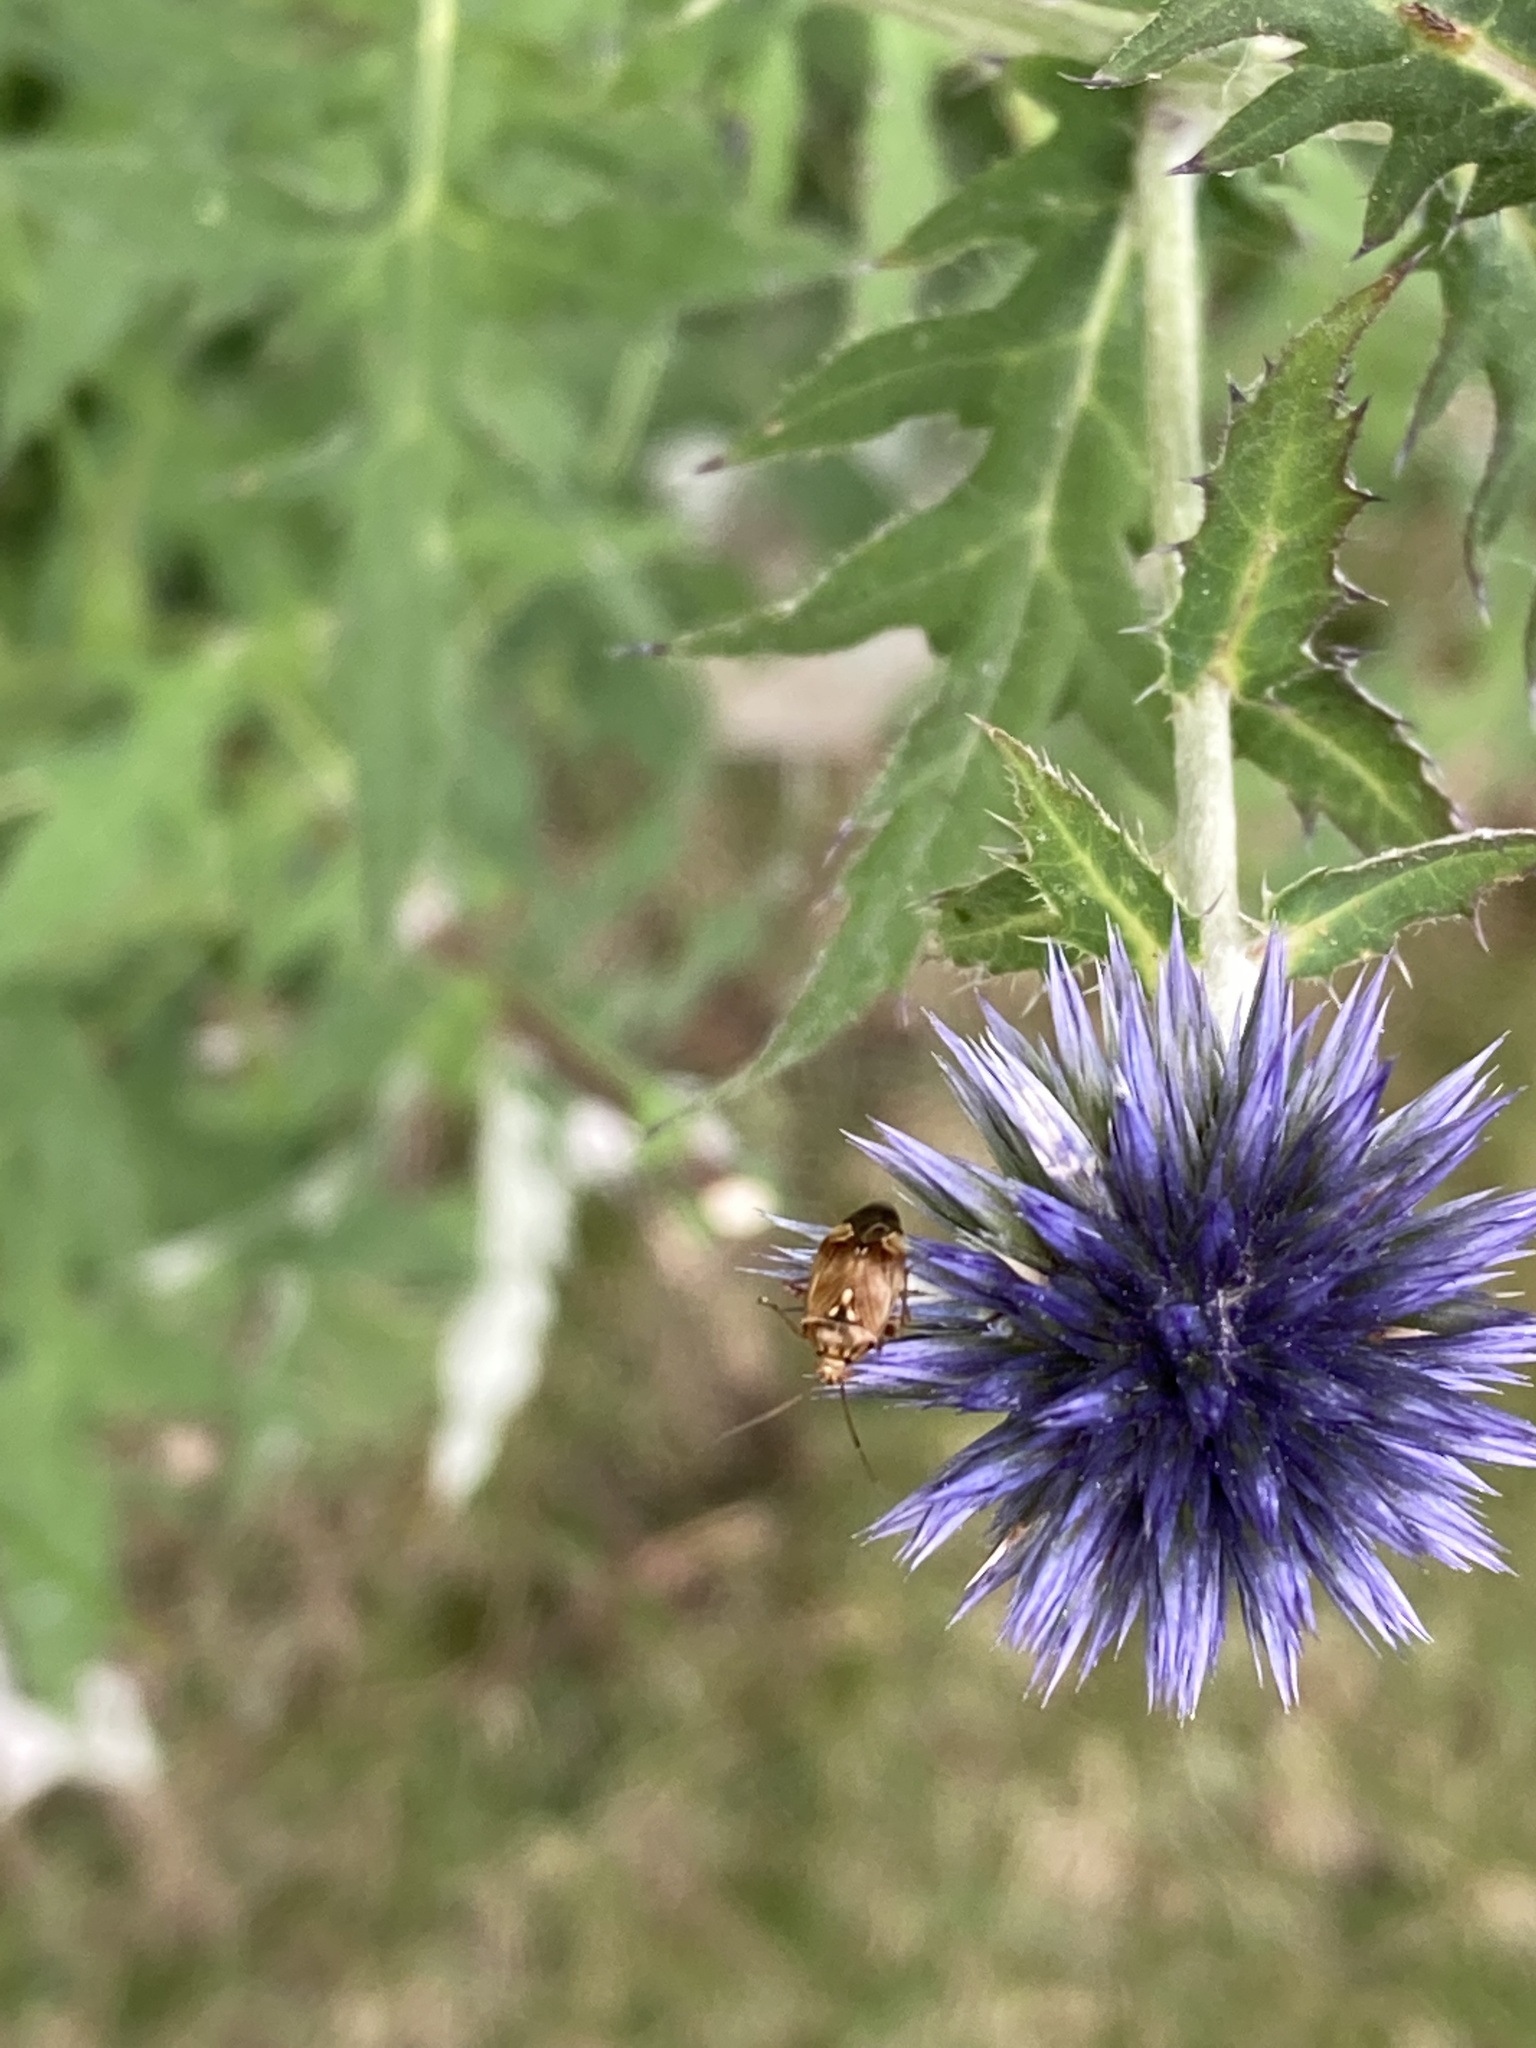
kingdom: Animalia
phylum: Arthropoda
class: Insecta
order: Hemiptera
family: Miridae
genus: Lygus
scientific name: Lygus lineolaris
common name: North american tarnished plant bug
